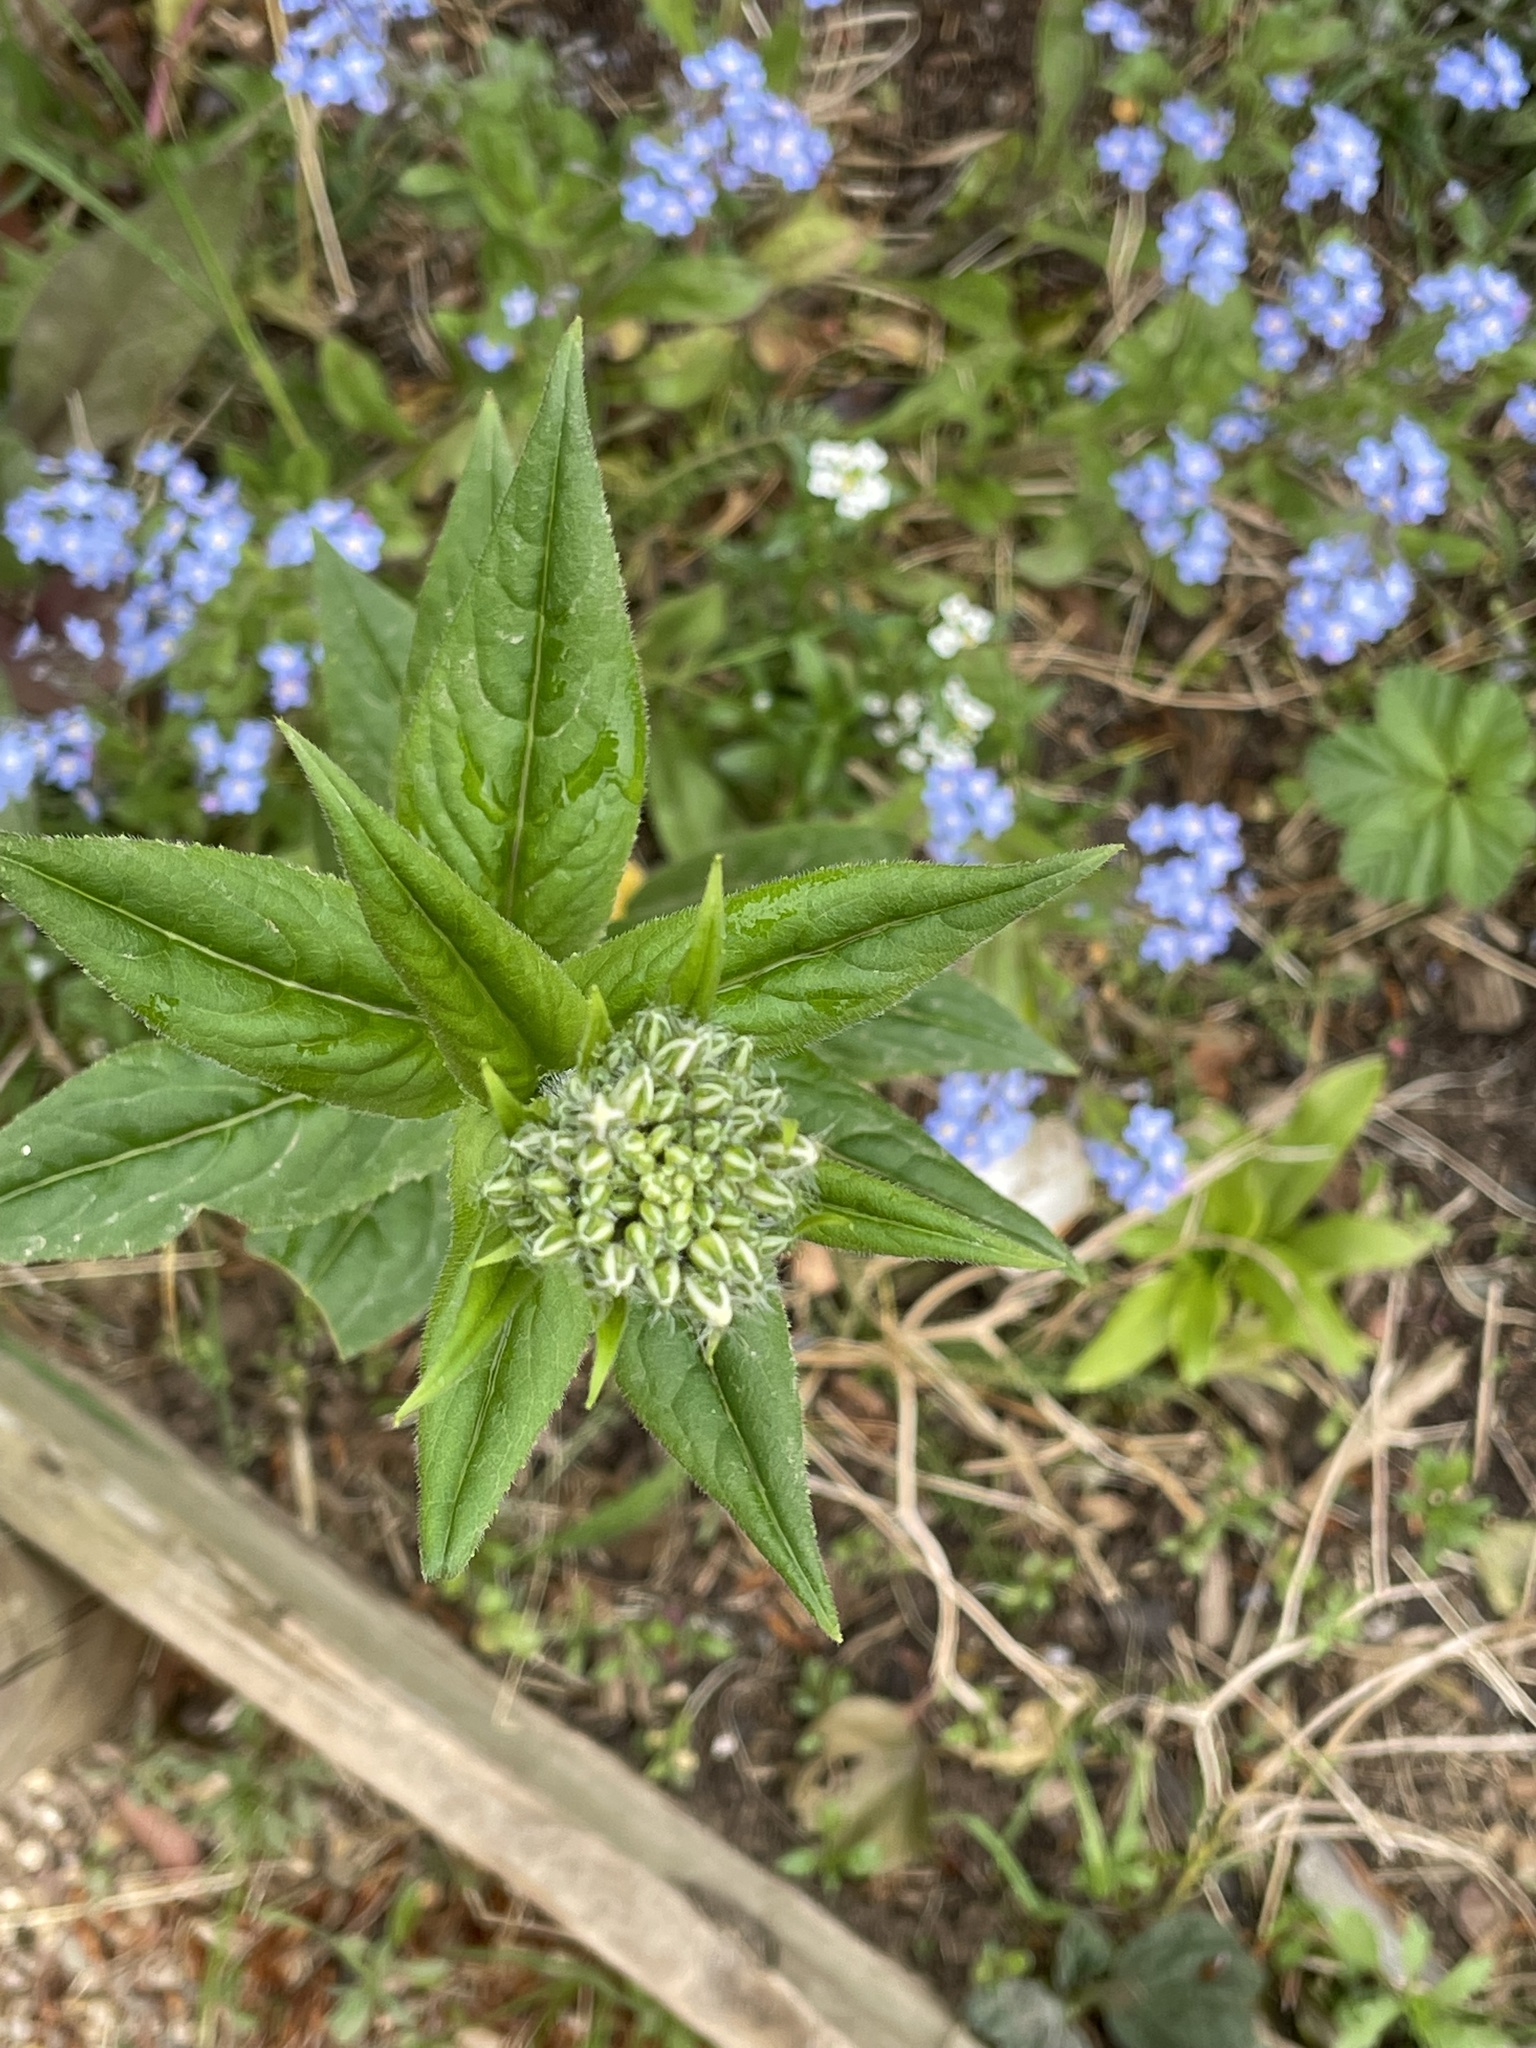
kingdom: Plantae
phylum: Tracheophyta
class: Magnoliopsida
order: Brassicales
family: Brassicaceae
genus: Hesperis
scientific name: Hesperis matronalis
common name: Dame's-violet
